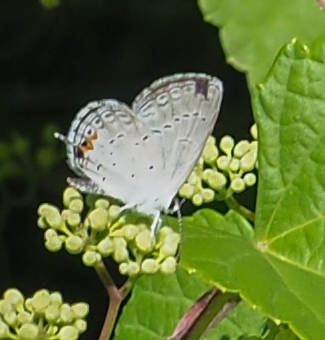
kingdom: Animalia
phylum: Arthropoda
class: Insecta
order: Lepidoptera
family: Lycaenidae
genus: Elkalyce
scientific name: Elkalyce comyntas
